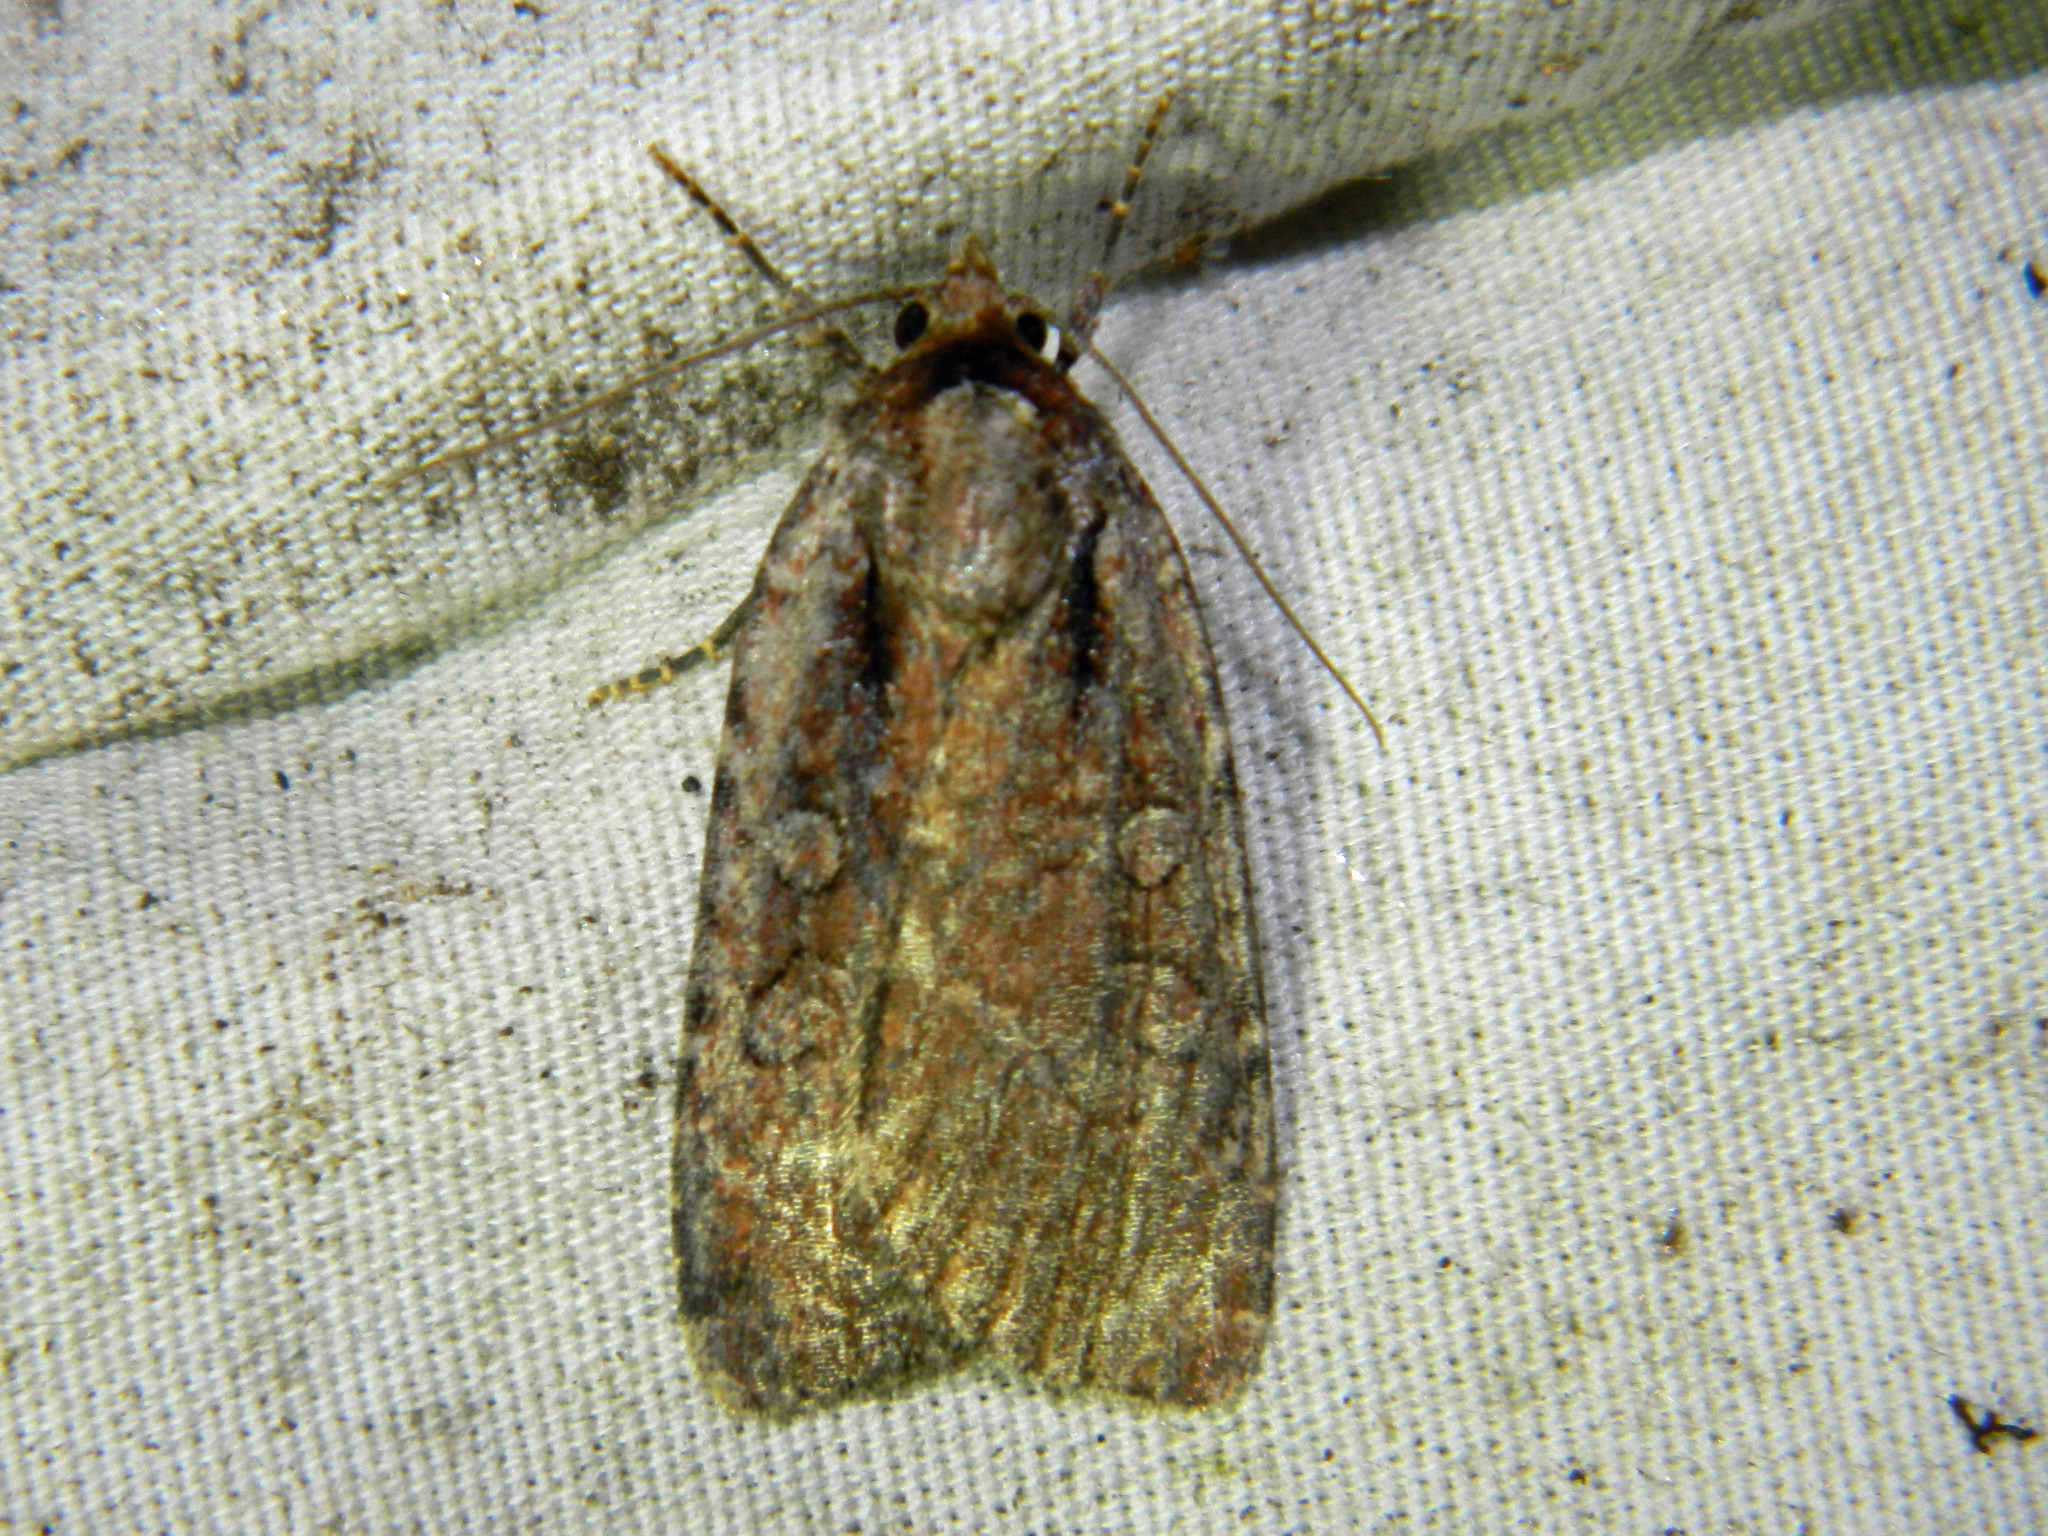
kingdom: Animalia
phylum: Arthropoda
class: Insecta
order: Lepidoptera
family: Noctuidae
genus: Eueretagrotis
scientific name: Eueretagrotis attentus
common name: Attentive dart
